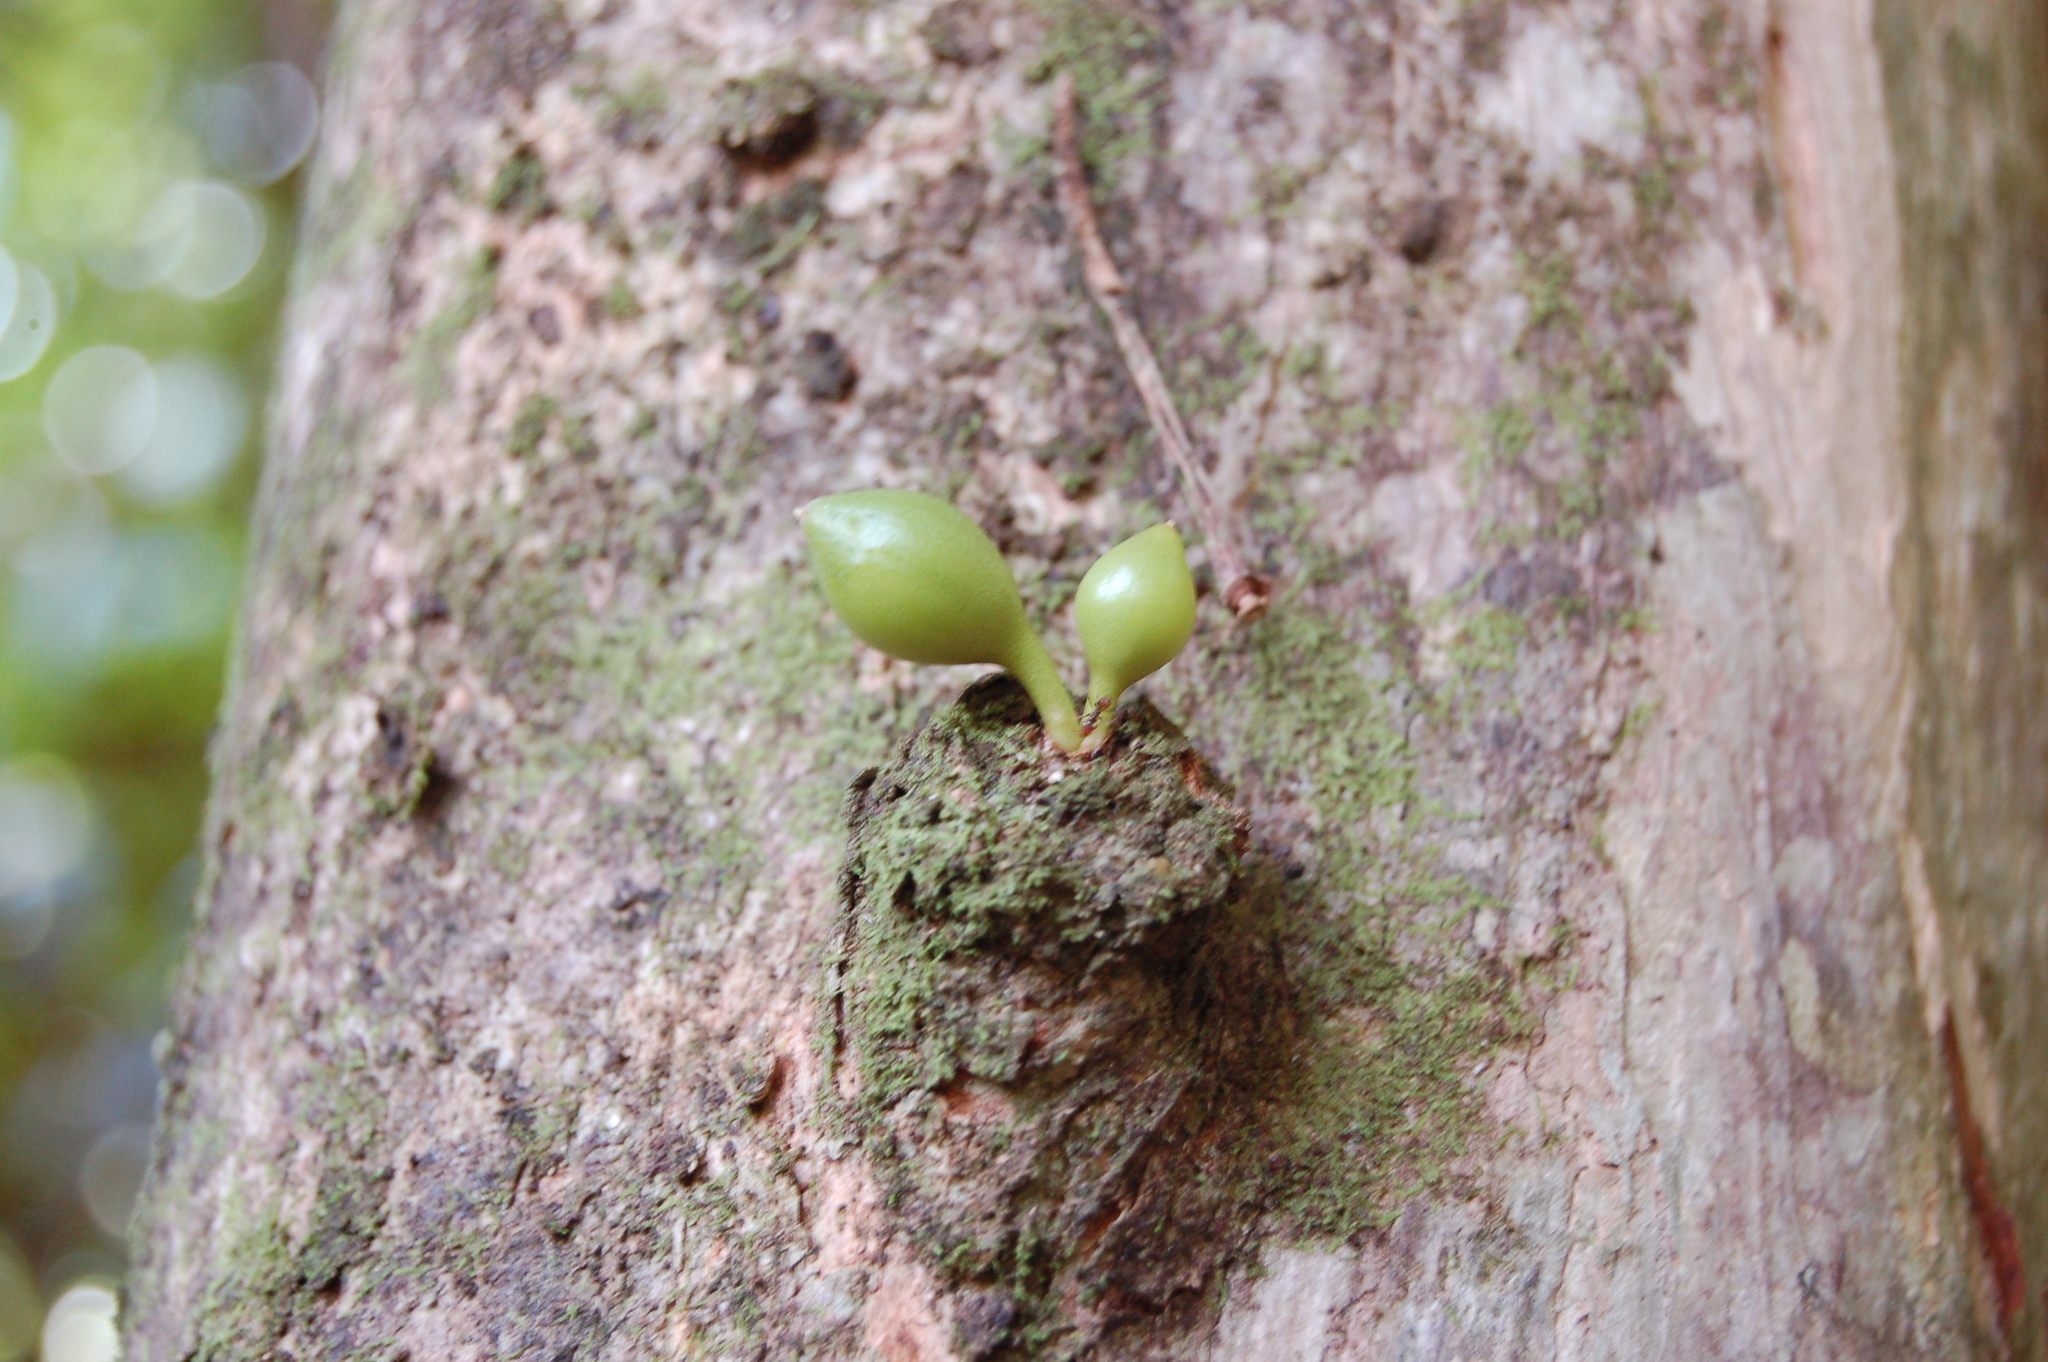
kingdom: Plantae
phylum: Tracheophyta
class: Magnoliopsida
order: Lamiales
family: Bignoniaceae
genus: Crescentia
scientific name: Crescentia cujete
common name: Calabash
